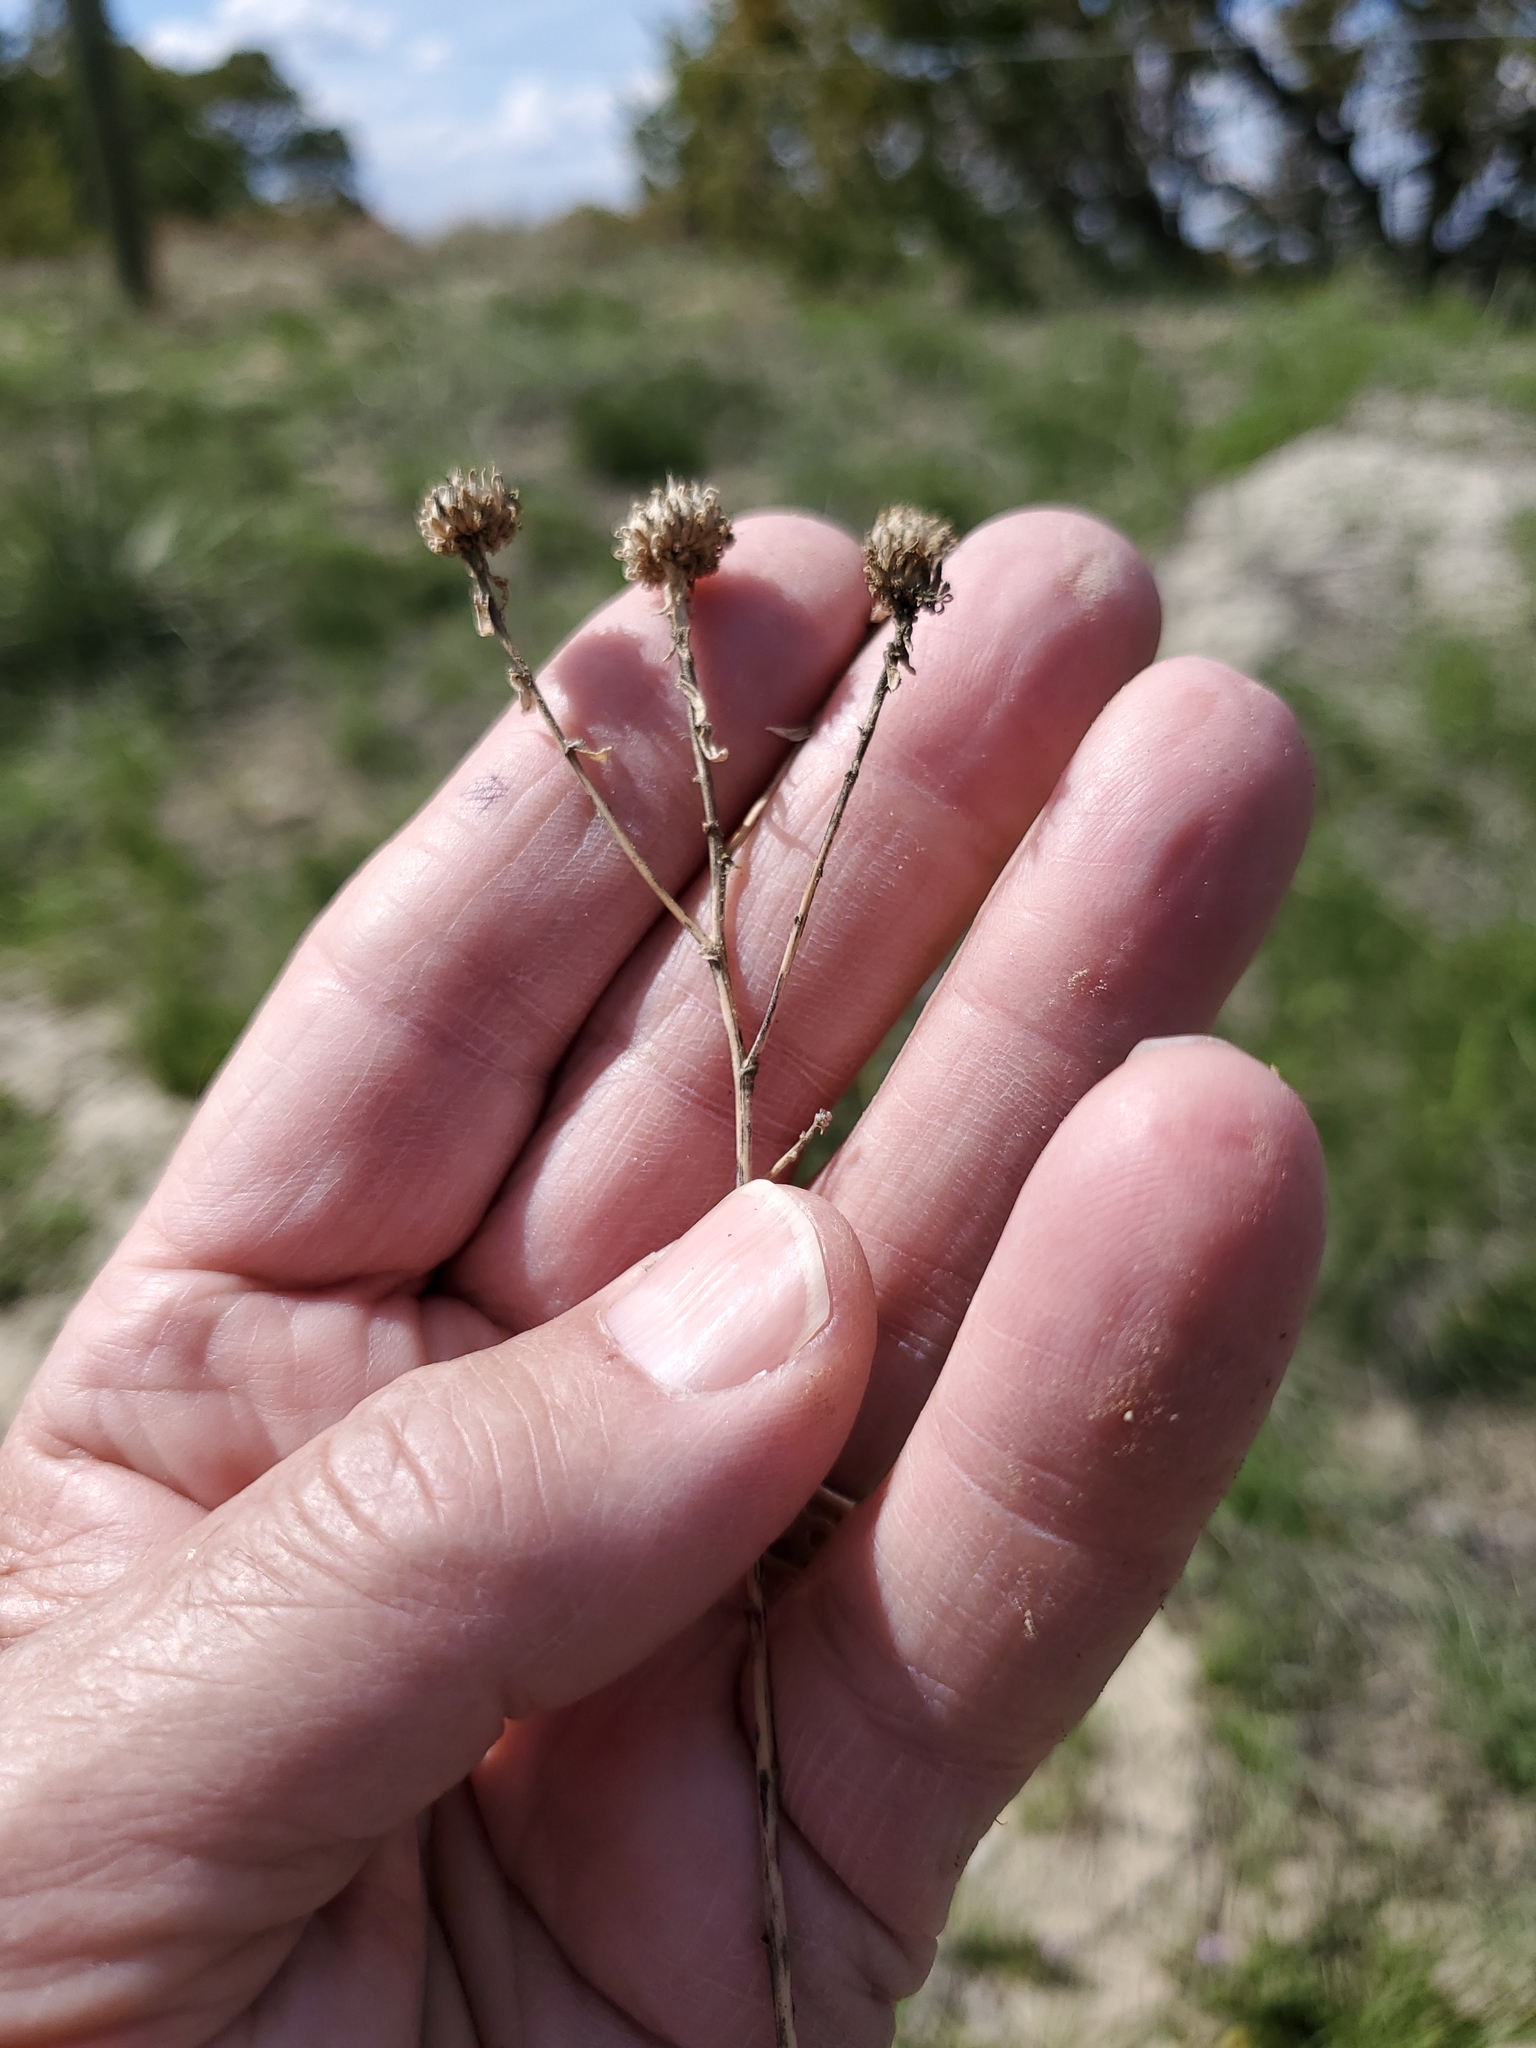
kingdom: Plantae
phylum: Tracheophyta
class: Magnoliopsida
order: Asterales
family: Asteraceae
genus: Grindelia
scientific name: Grindelia squarrosa
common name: Curly-cup gumweed
